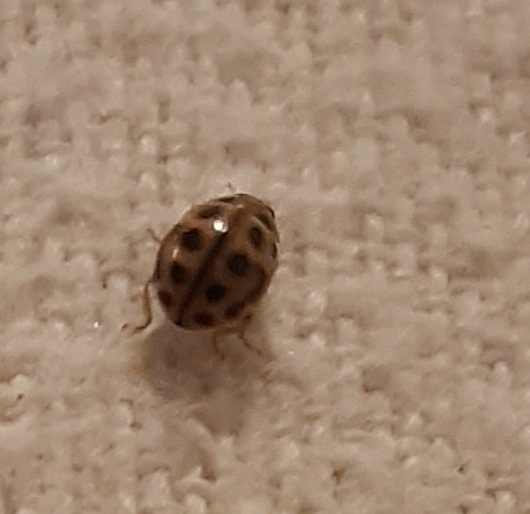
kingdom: Animalia
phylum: Arthropoda
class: Insecta
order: Coleoptera
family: Coccinellidae
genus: Tytthaspis
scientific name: Tytthaspis sedecimpunctata
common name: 16-spot ladybird
